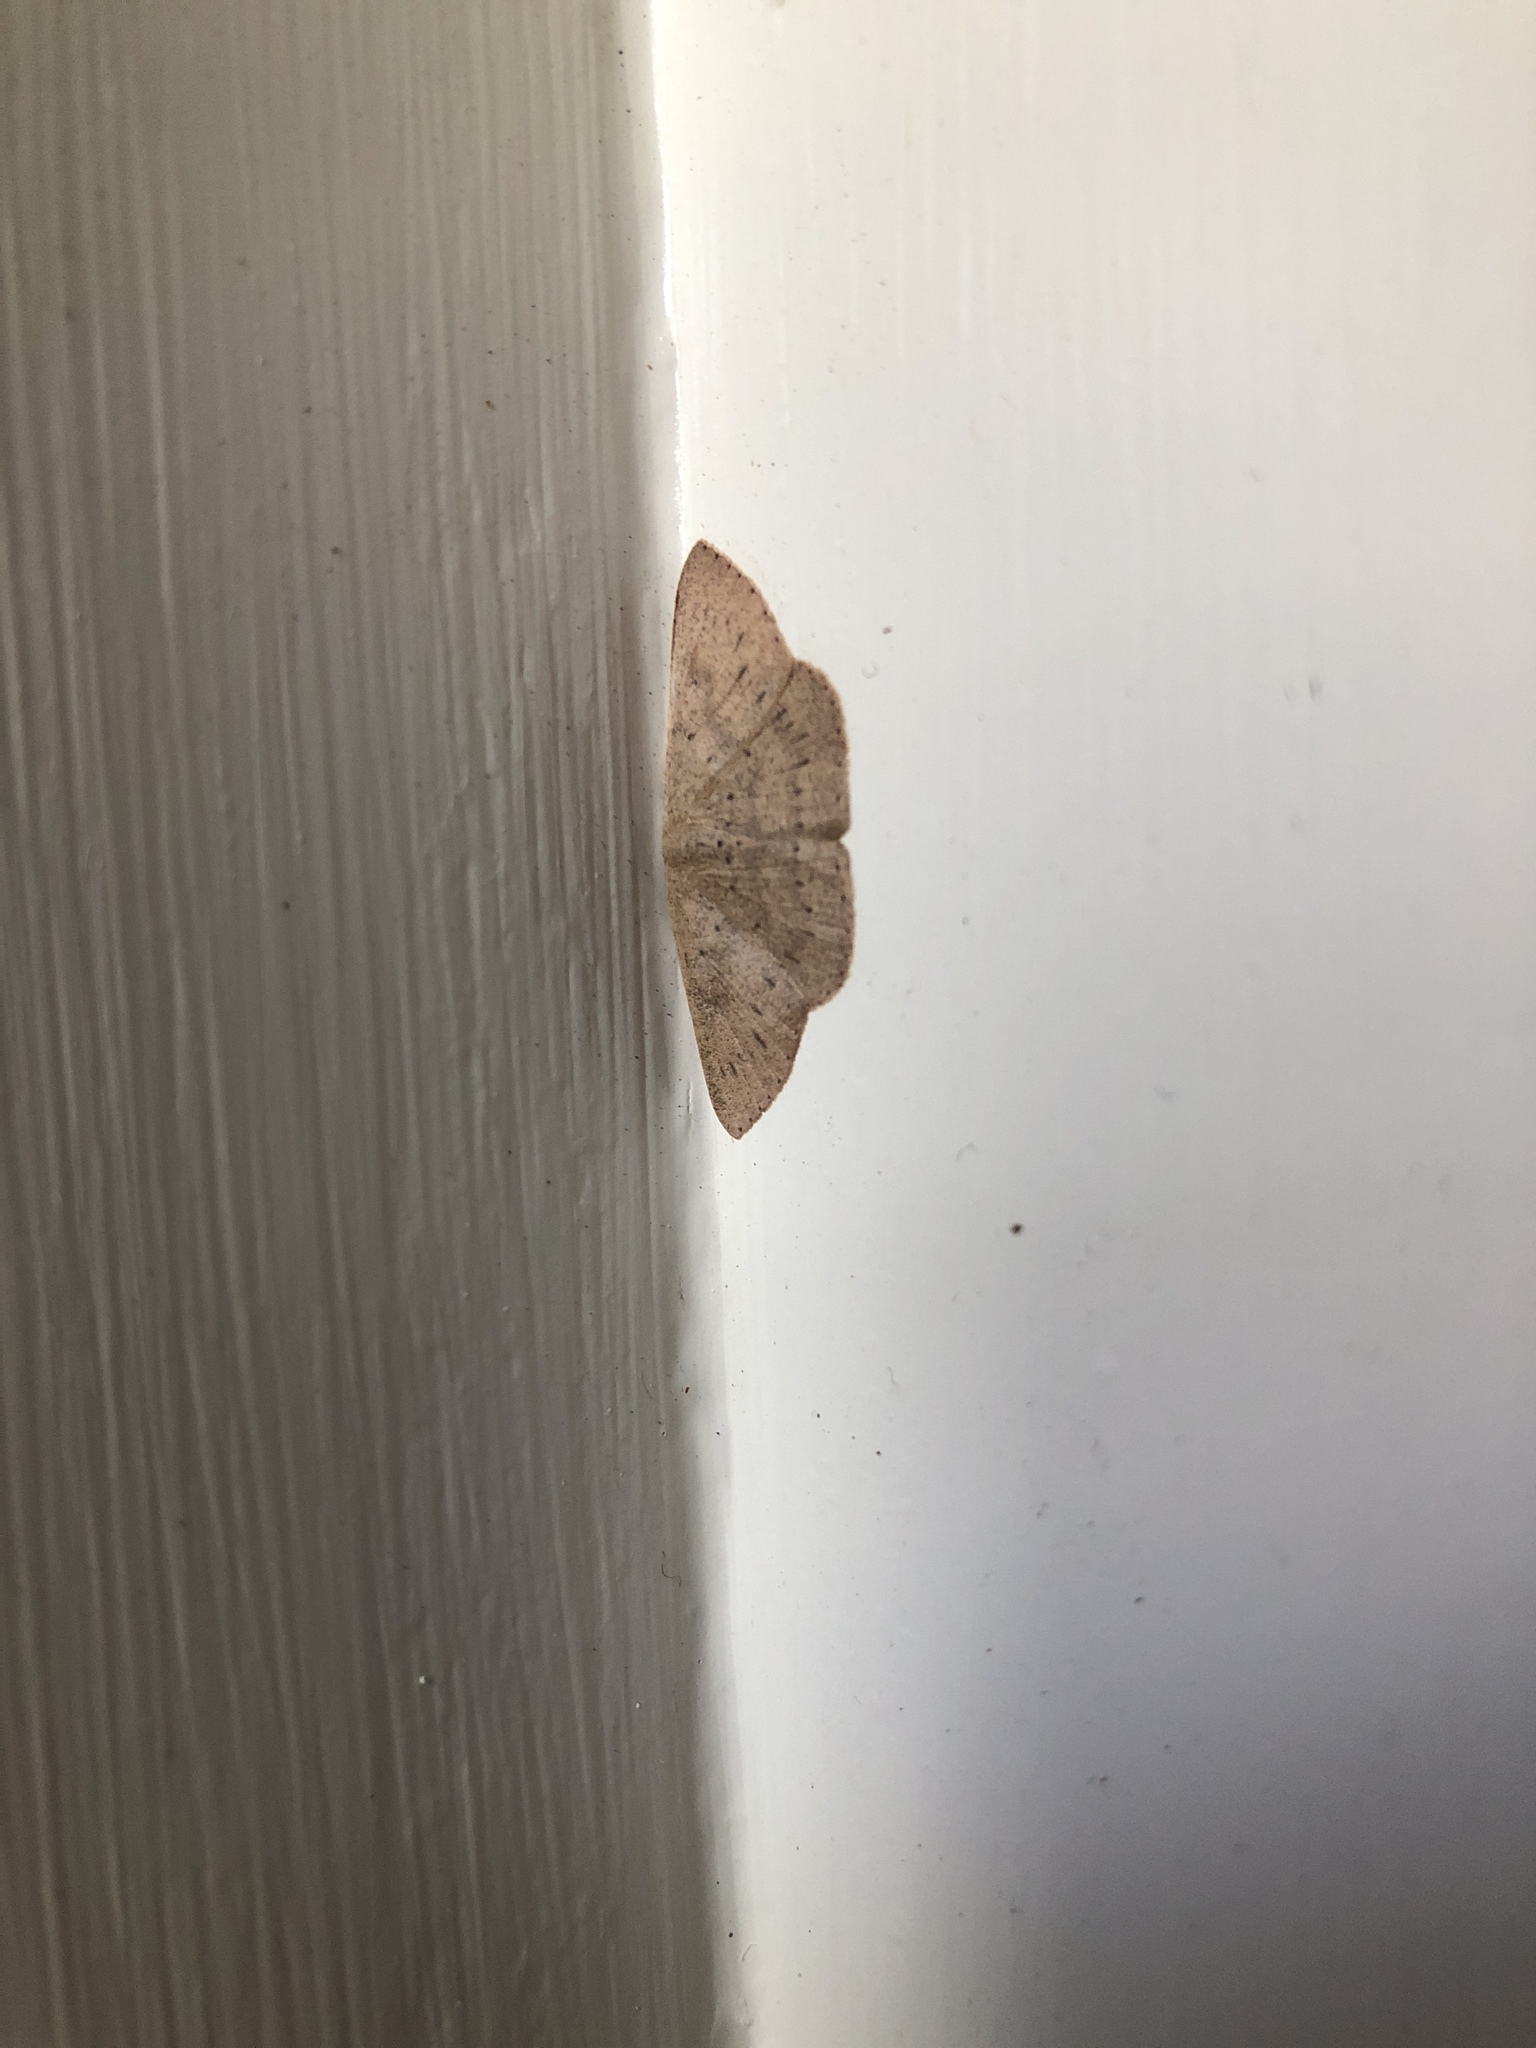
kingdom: Animalia
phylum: Arthropoda
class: Insecta
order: Lepidoptera
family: Geometridae
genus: Cyclophora
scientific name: Cyclophora obstataria
